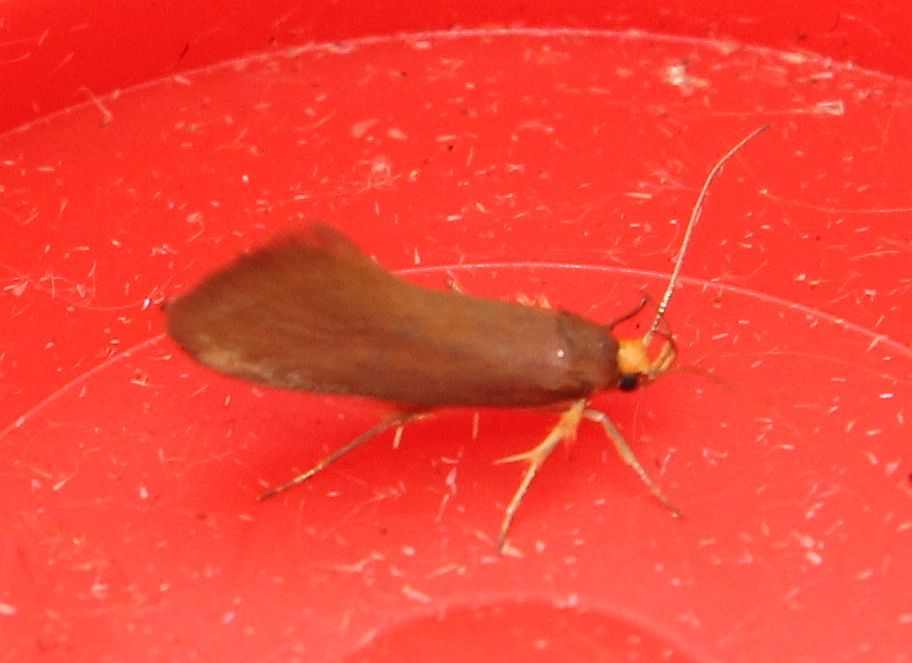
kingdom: Animalia
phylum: Arthropoda
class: Insecta
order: Lepidoptera
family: Oecophoridae
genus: Borkhausenia
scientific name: Borkhausenia Crassa unitella
